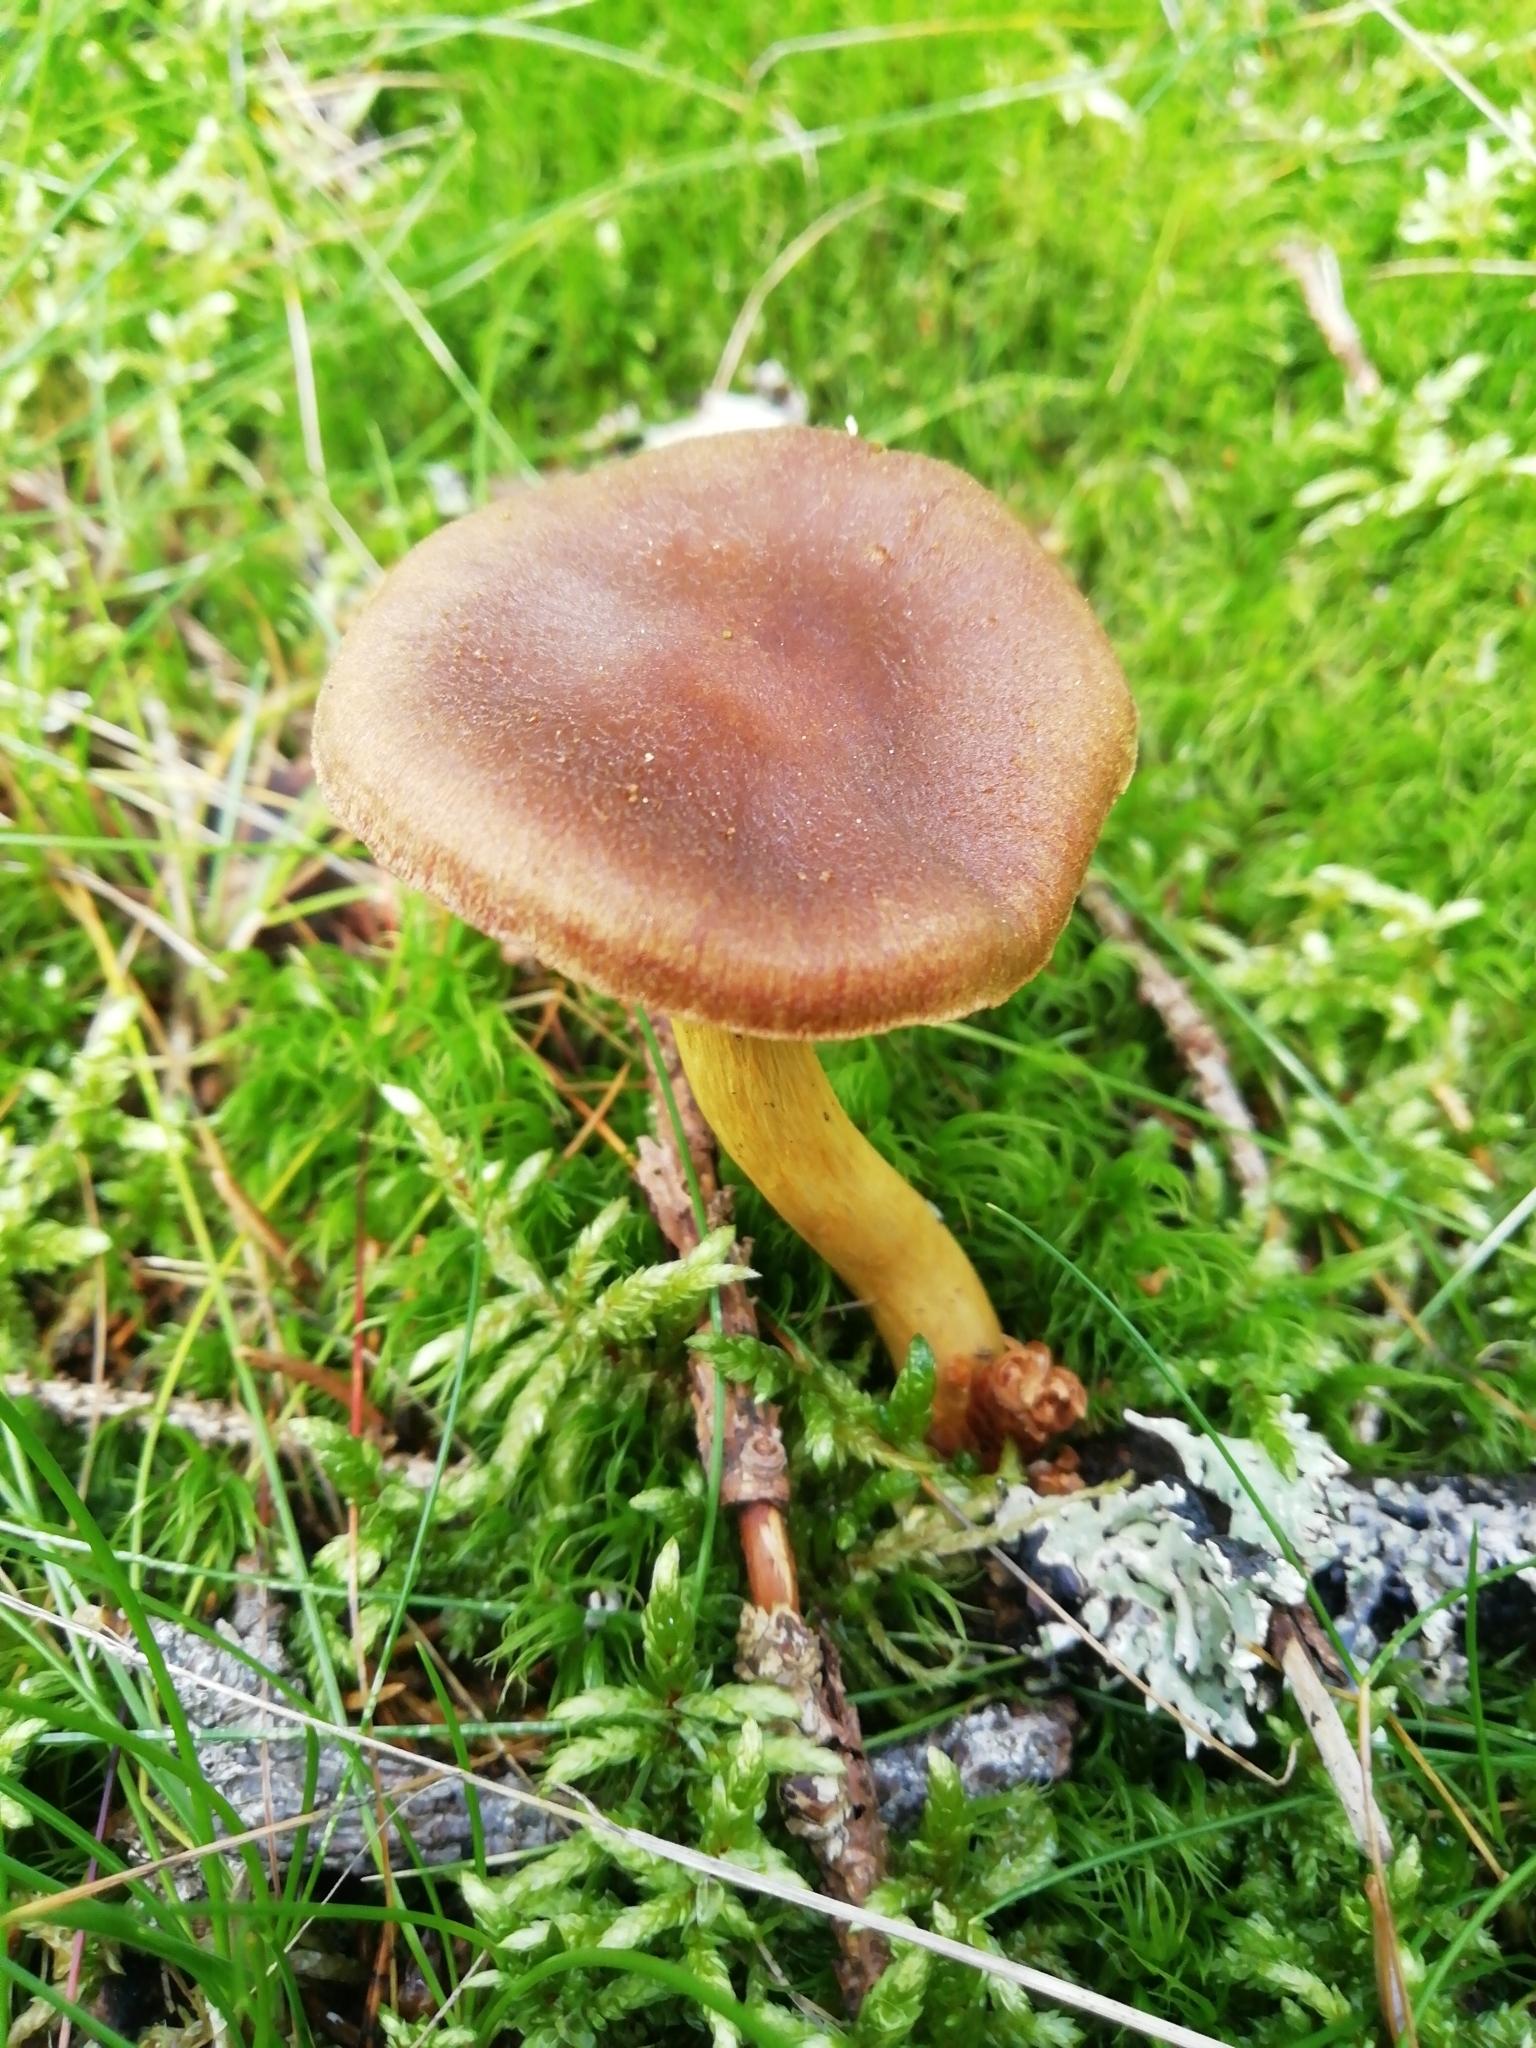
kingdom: Fungi
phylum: Basidiomycota
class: Agaricomycetes
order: Agaricales
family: Cortinariaceae
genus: Cortinarius
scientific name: Cortinarius semisanguineus
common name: Surprise webcap
